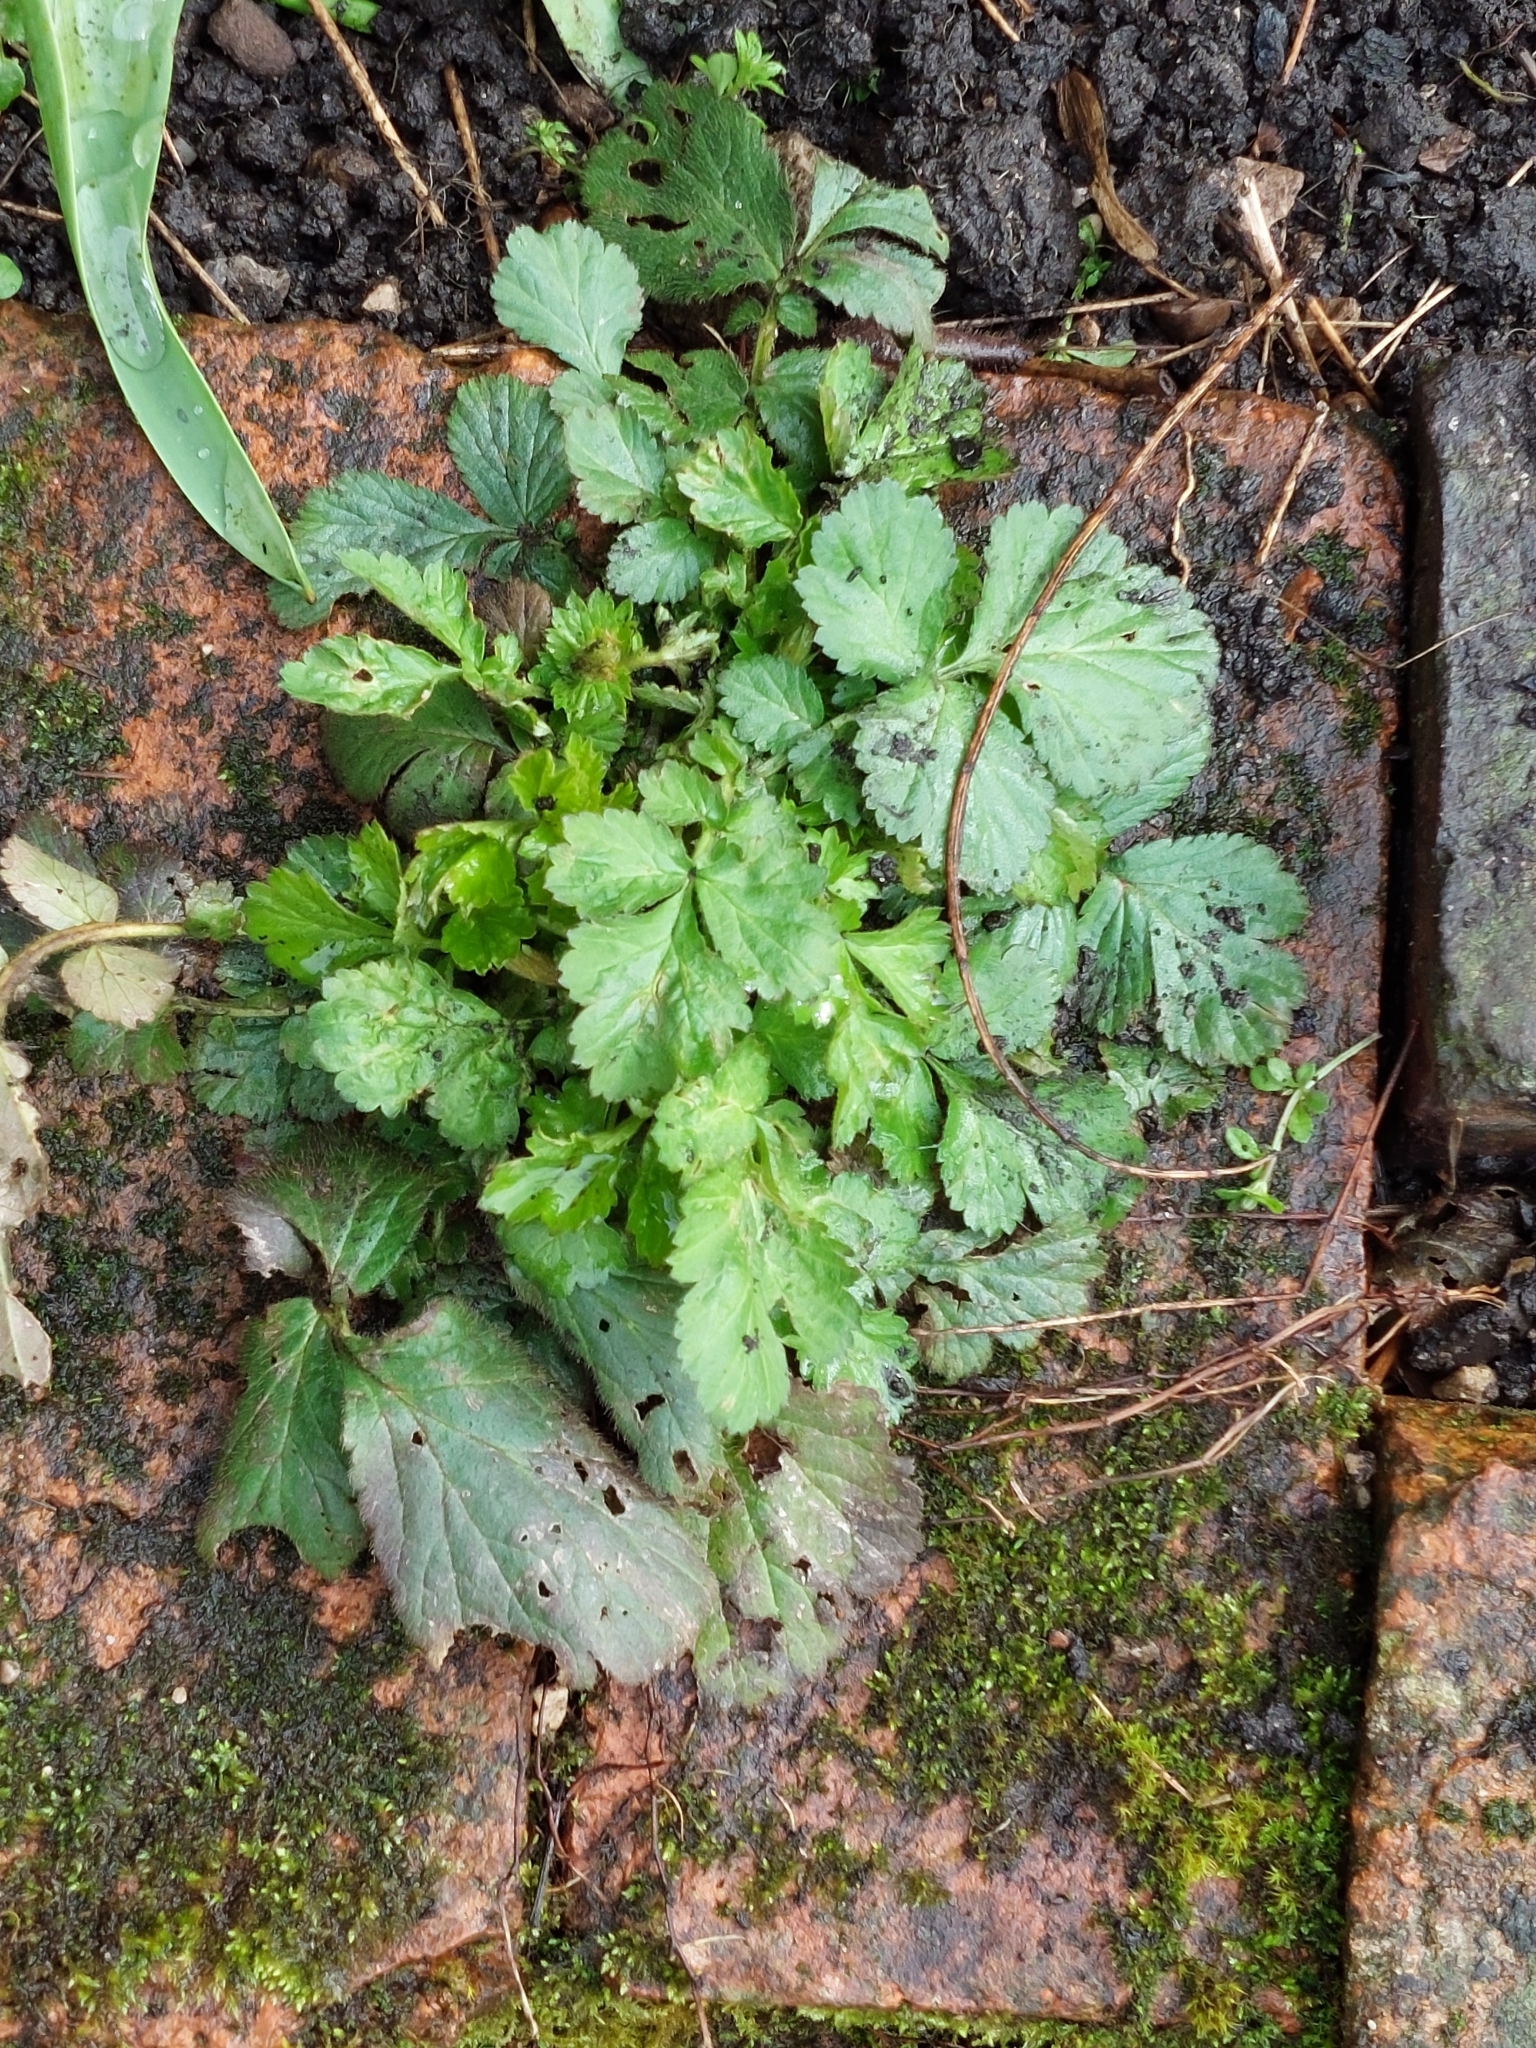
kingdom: Plantae
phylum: Tracheophyta
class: Magnoliopsida
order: Rosales
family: Rosaceae
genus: Geum
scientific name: Geum urbanum
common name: Wood avens
